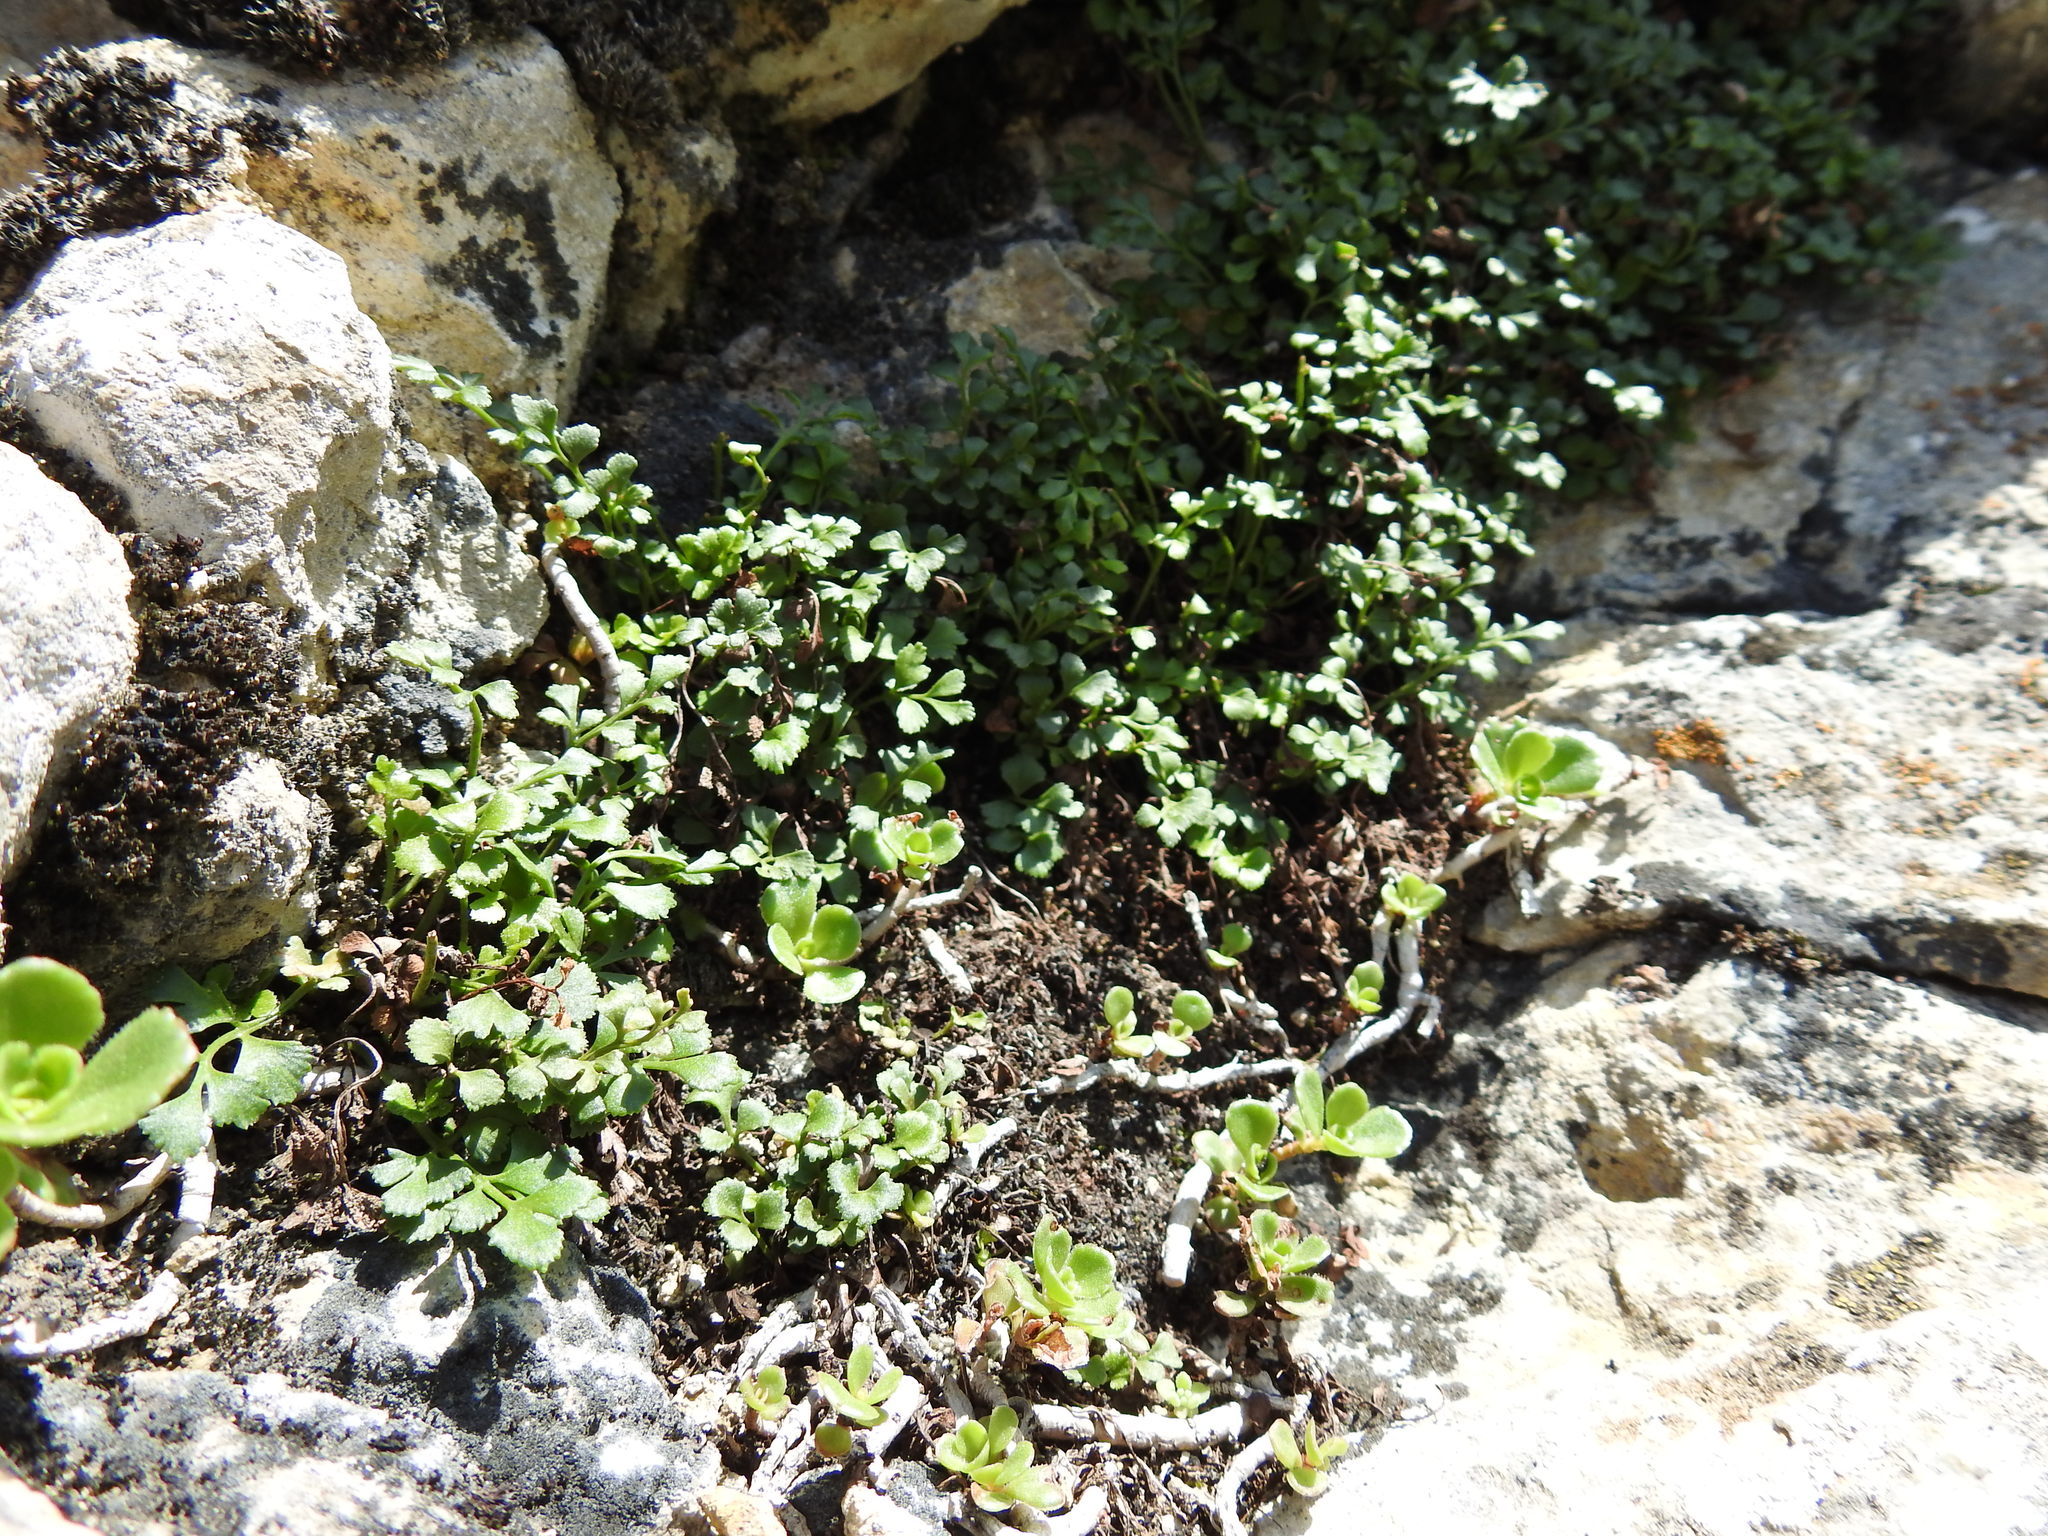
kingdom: Plantae
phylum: Tracheophyta
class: Polypodiopsida
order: Polypodiales
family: Aspleniaceae
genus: Asplenium
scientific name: Asplenium ruta-muraria
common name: Wall-rue
